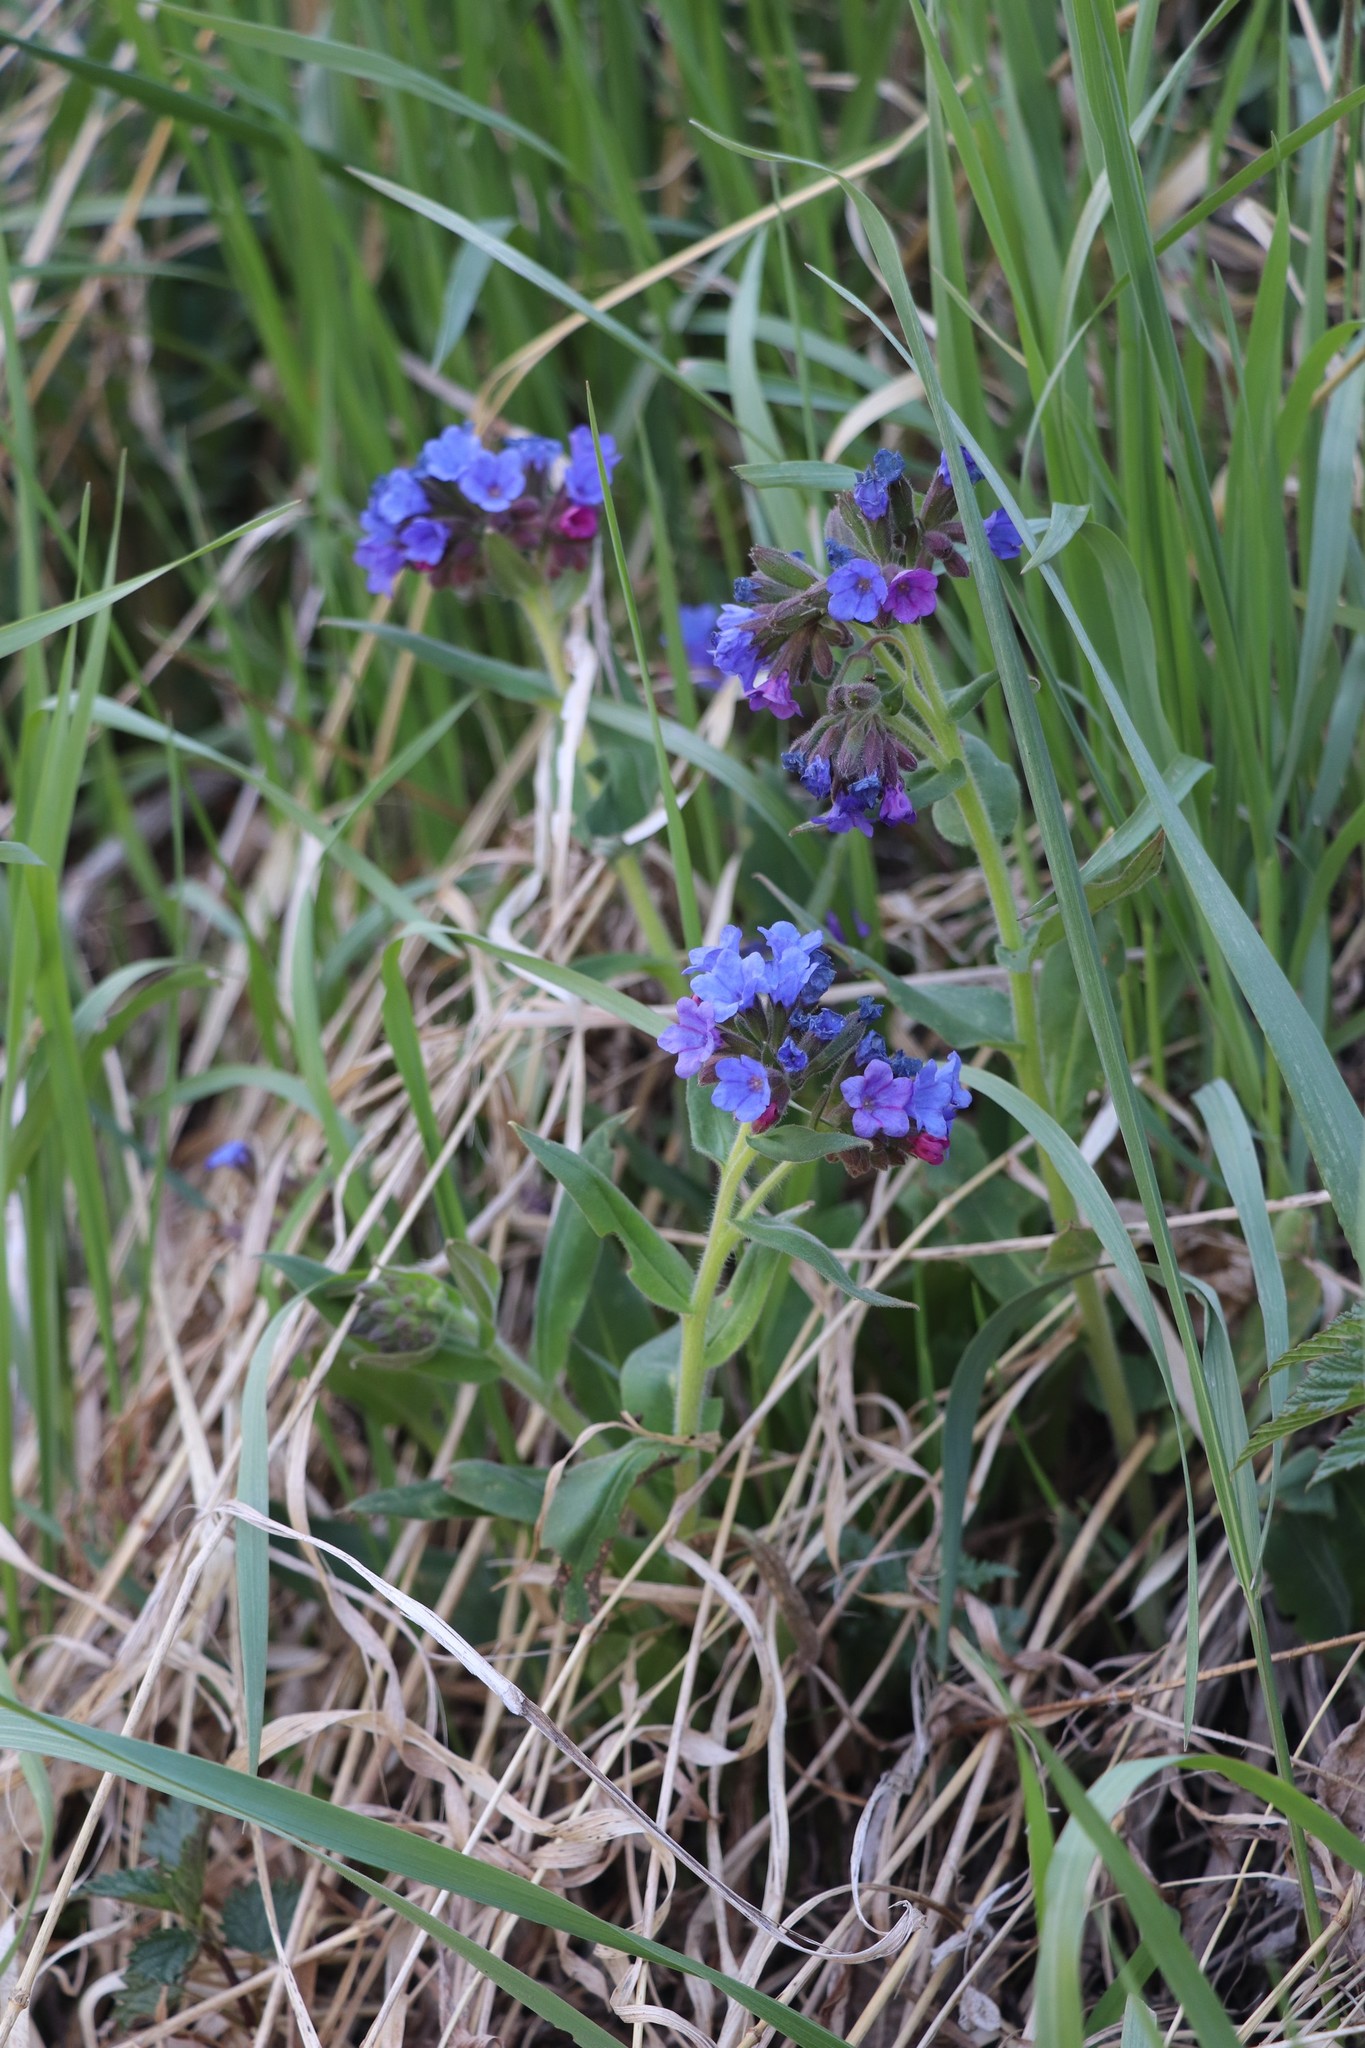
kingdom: Plantae
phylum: Tracheophyta
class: Magnoliopsida
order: Boraginales
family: Boraginaceae
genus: Pulmonaria
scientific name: Pulmonaria mollis
